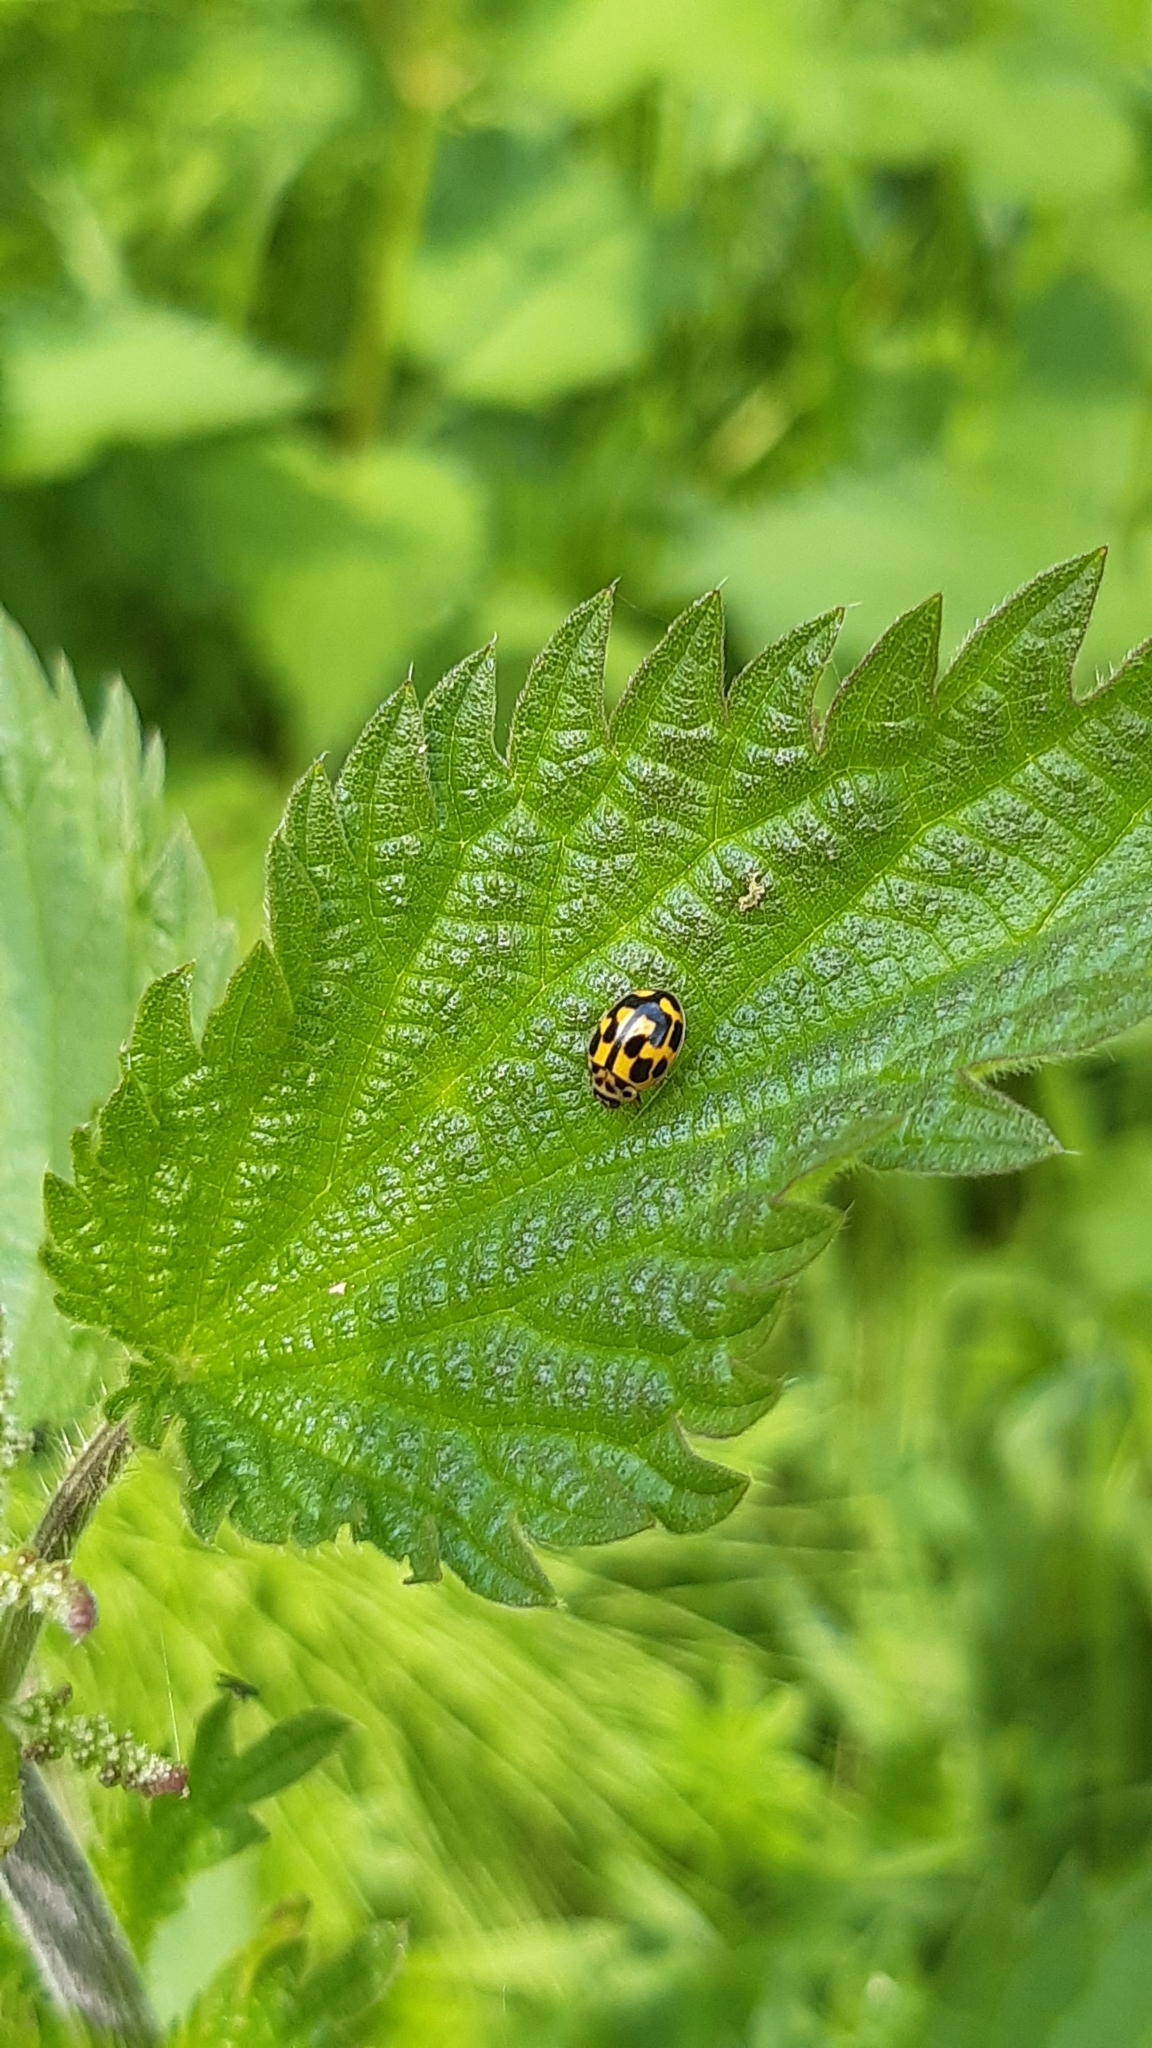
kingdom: Animalia
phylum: Arthropoda
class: Insecta
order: Coleoptera
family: Coccinellidae
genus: Propylaea
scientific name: Propylaea quatuordecimpunctata
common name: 14-spotted ladybird beetle
